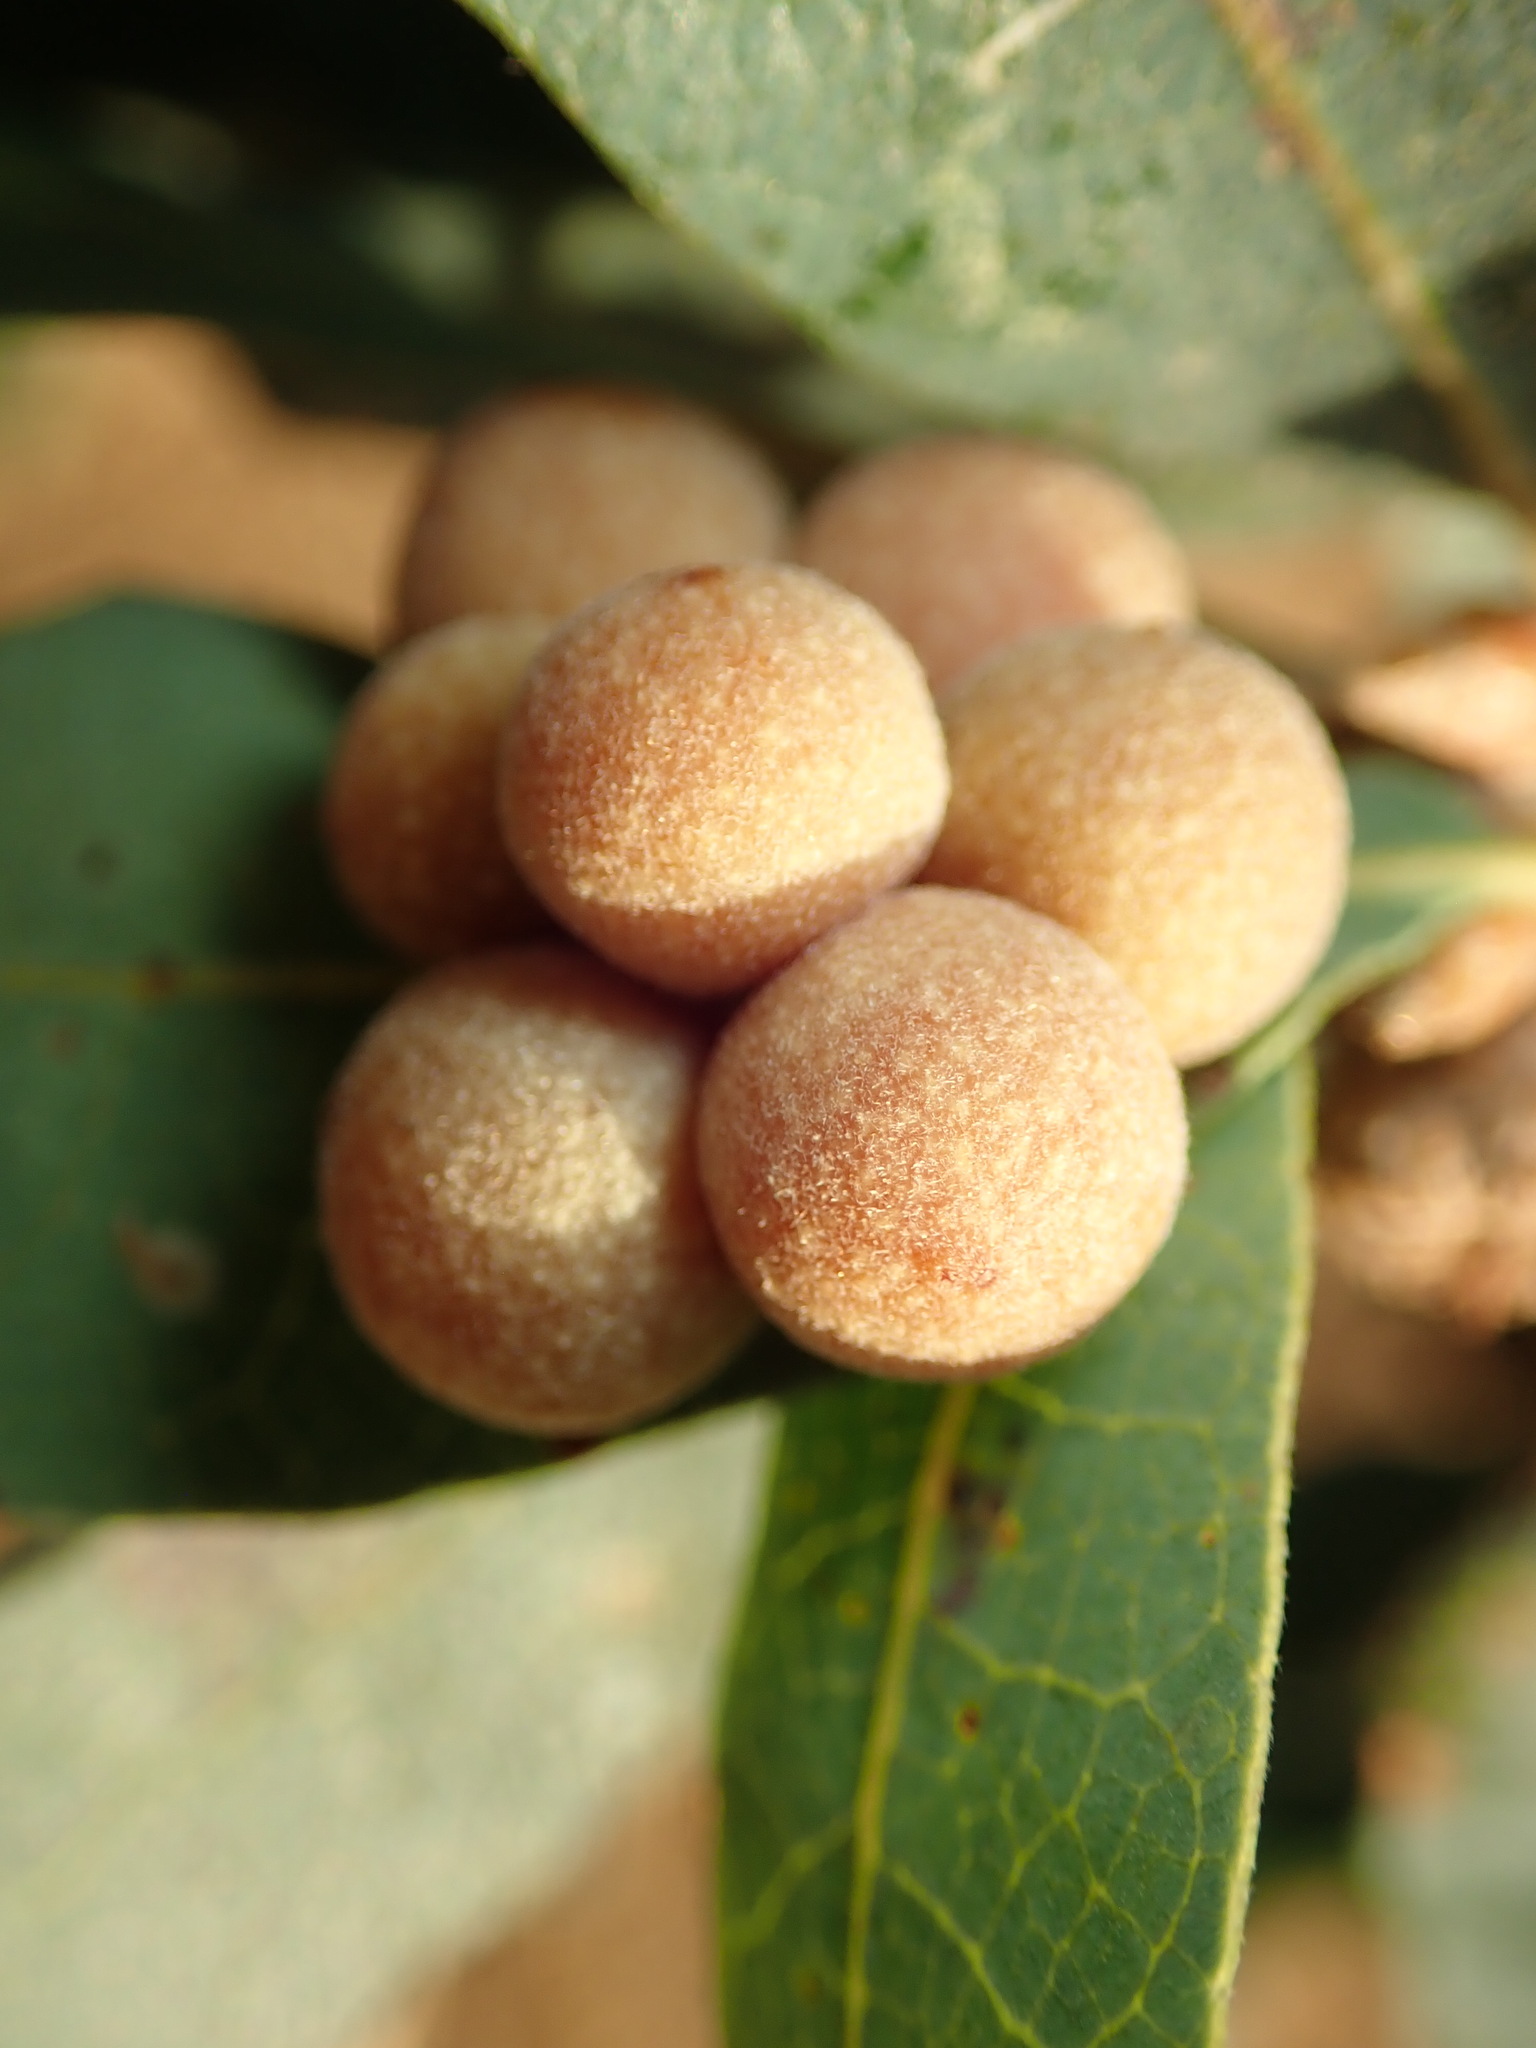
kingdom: Animalia
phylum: Arthropoda
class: Insecta
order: Hymenoptera
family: Cynipidae
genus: Andricus
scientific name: Andricus
